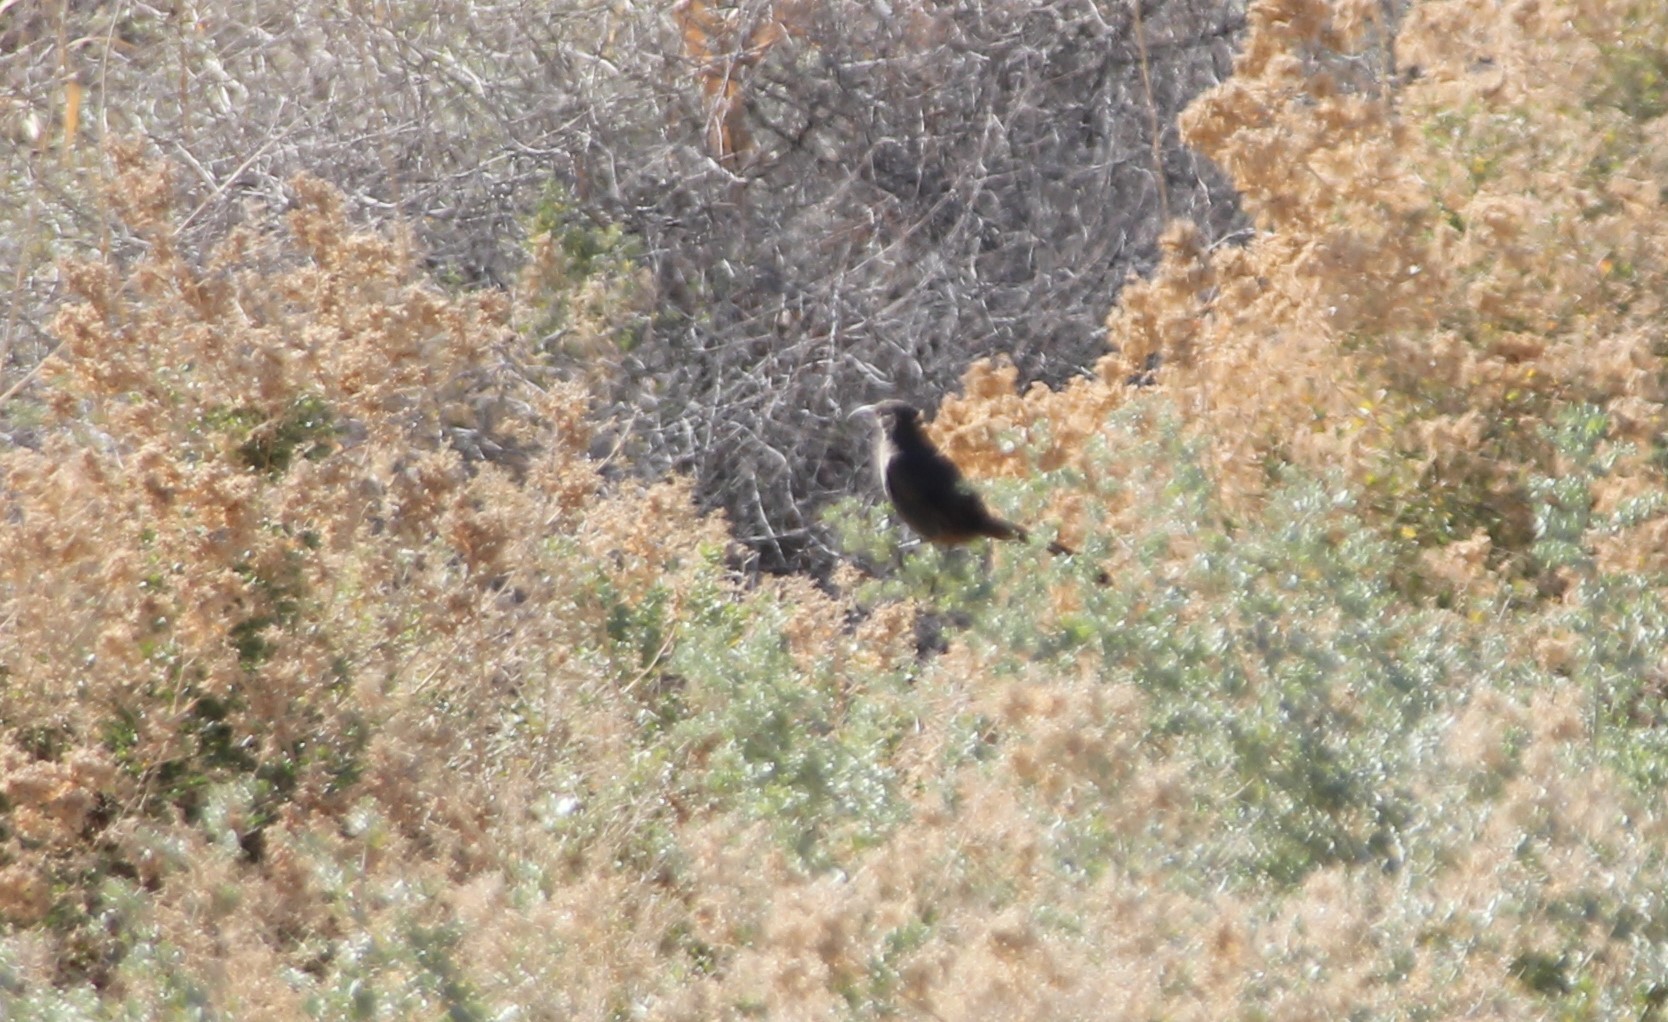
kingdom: Animalia
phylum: Chordata
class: Aves
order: Passeriformes
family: Mimidae
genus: Toxostoma
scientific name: Toxostoma crissale
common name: Crissal thrasher
